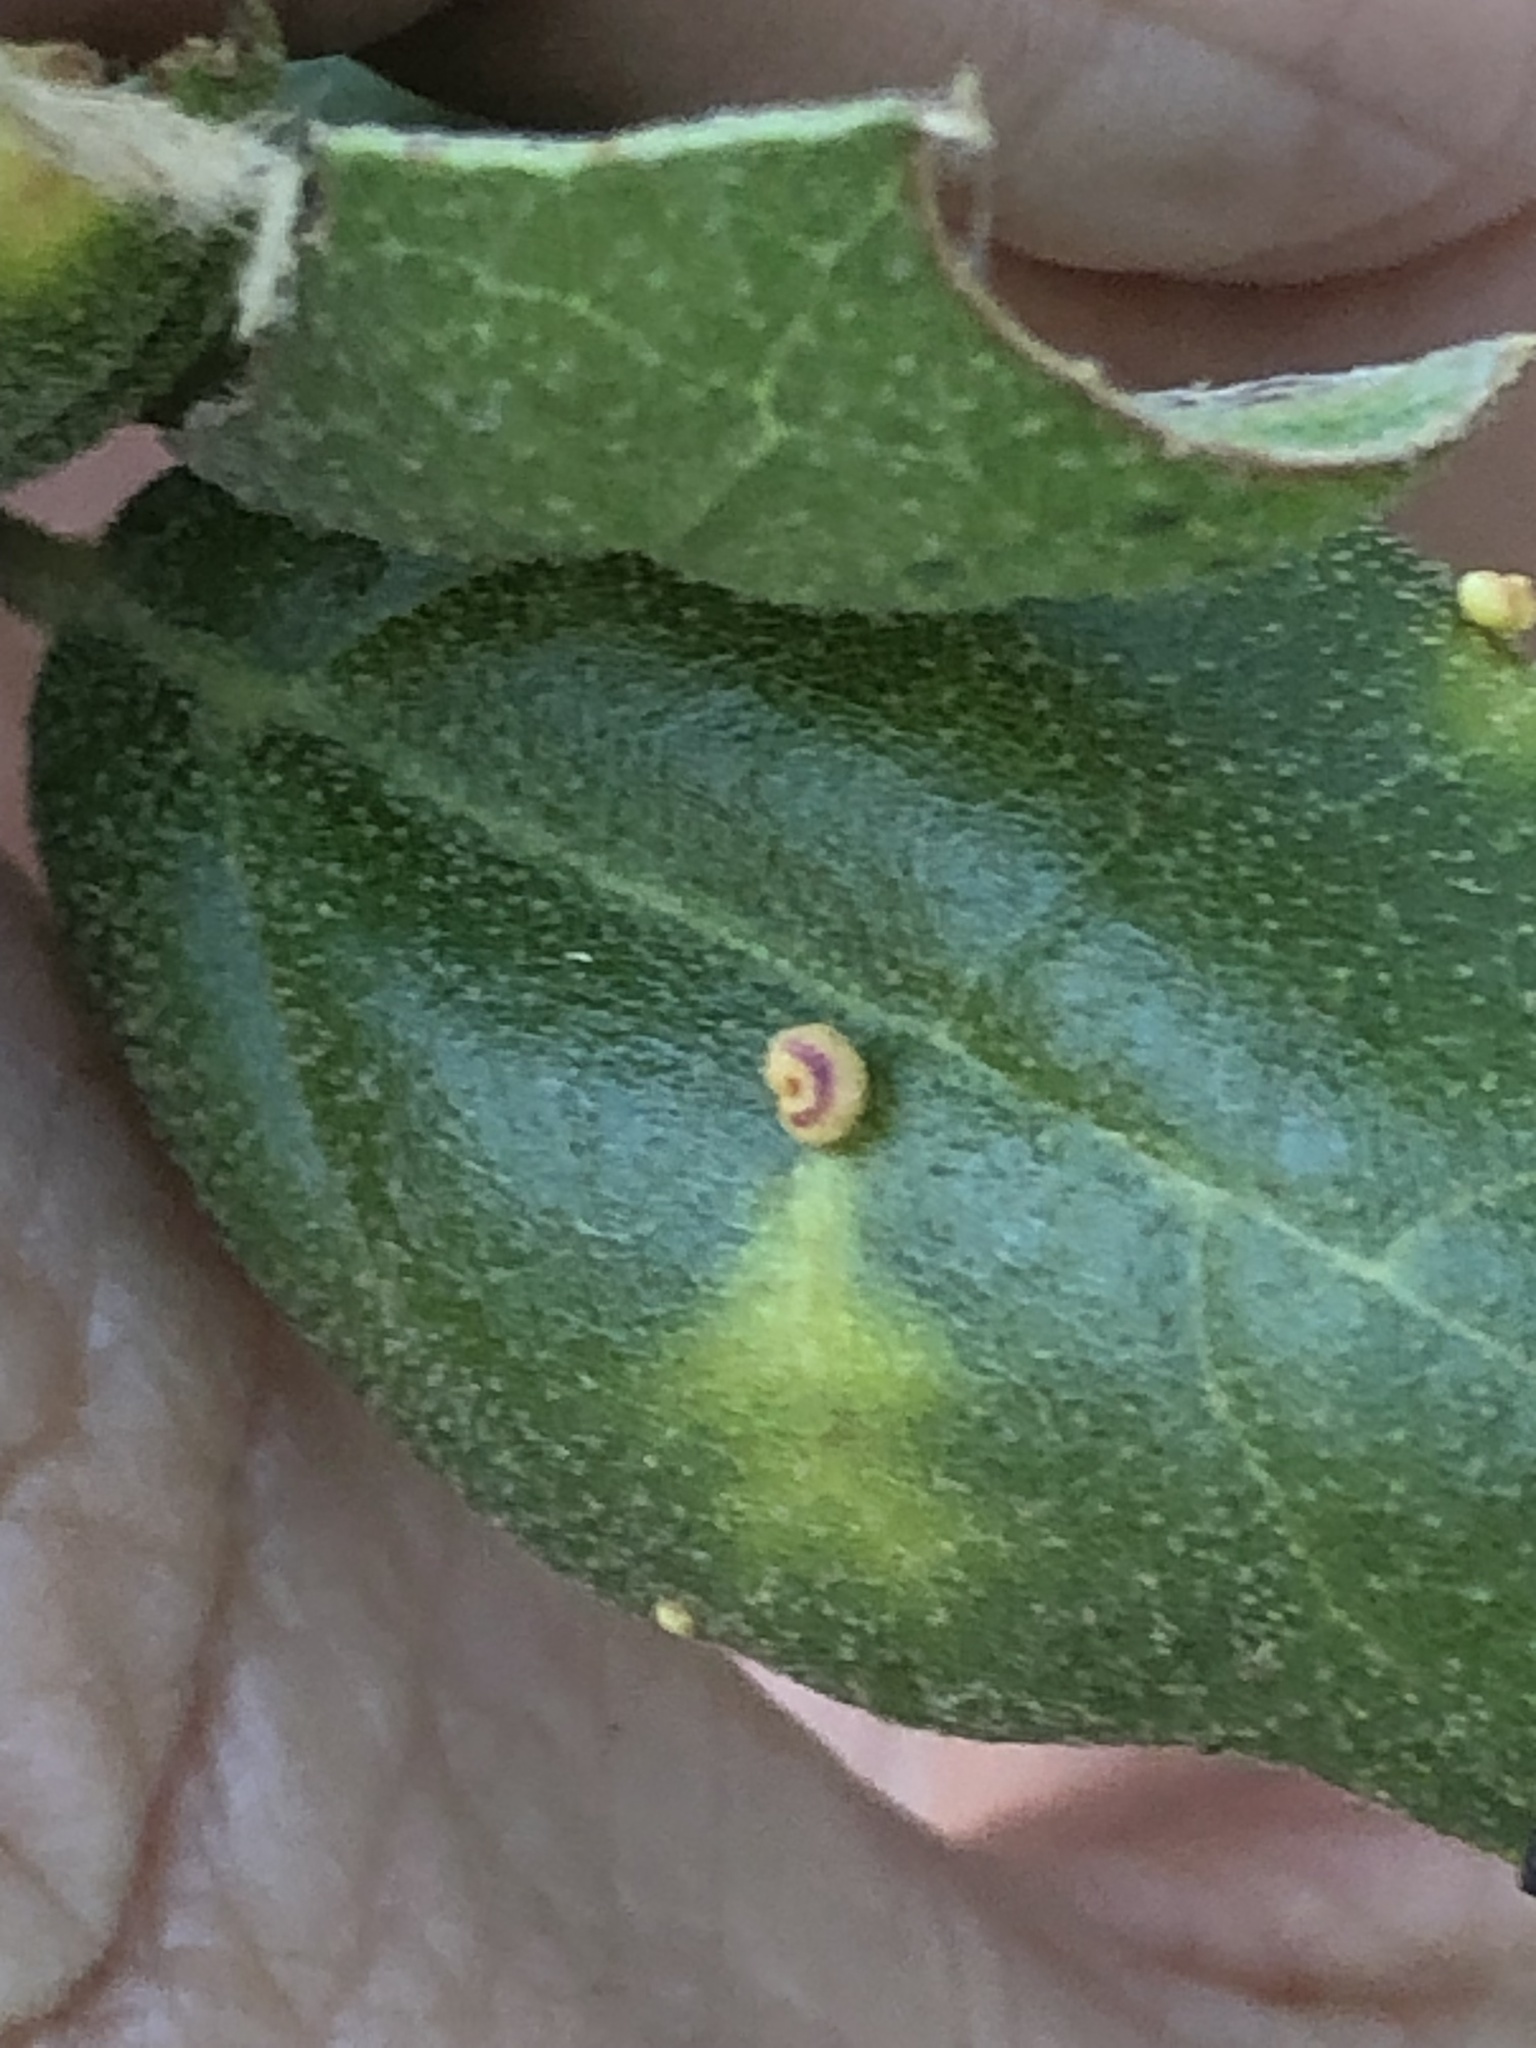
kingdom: Animalia
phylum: Arthropoda
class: Insecta
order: Hymenoptera
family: Cynipidae
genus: Dryocosmus
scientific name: Dryocosmus
